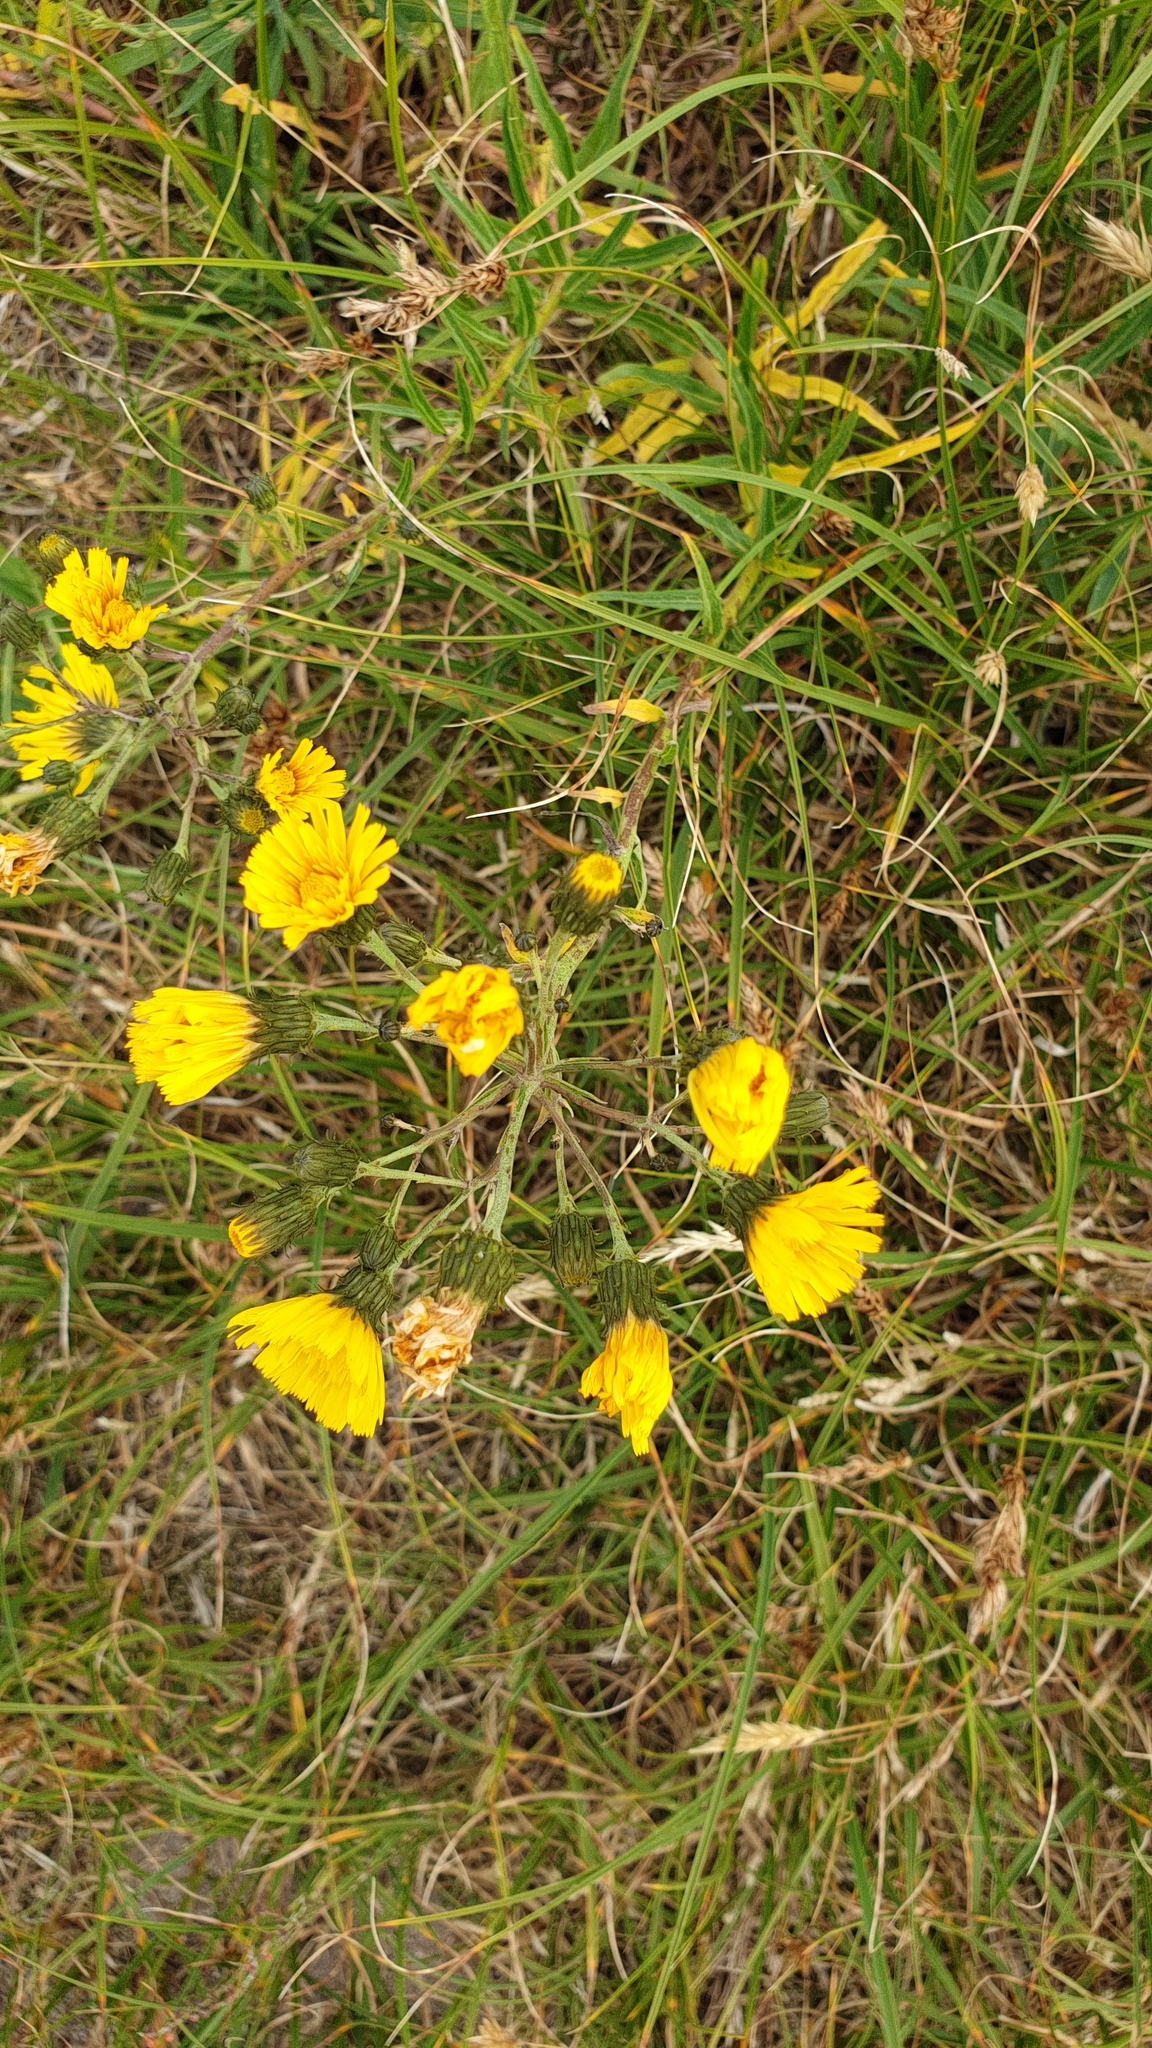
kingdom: Plantae
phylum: Tracheophyta
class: Magnoliopsida
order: Asterales
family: Asteraceae
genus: Hieracium
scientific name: Hieracium umbellatum
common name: Northern hawkweed
